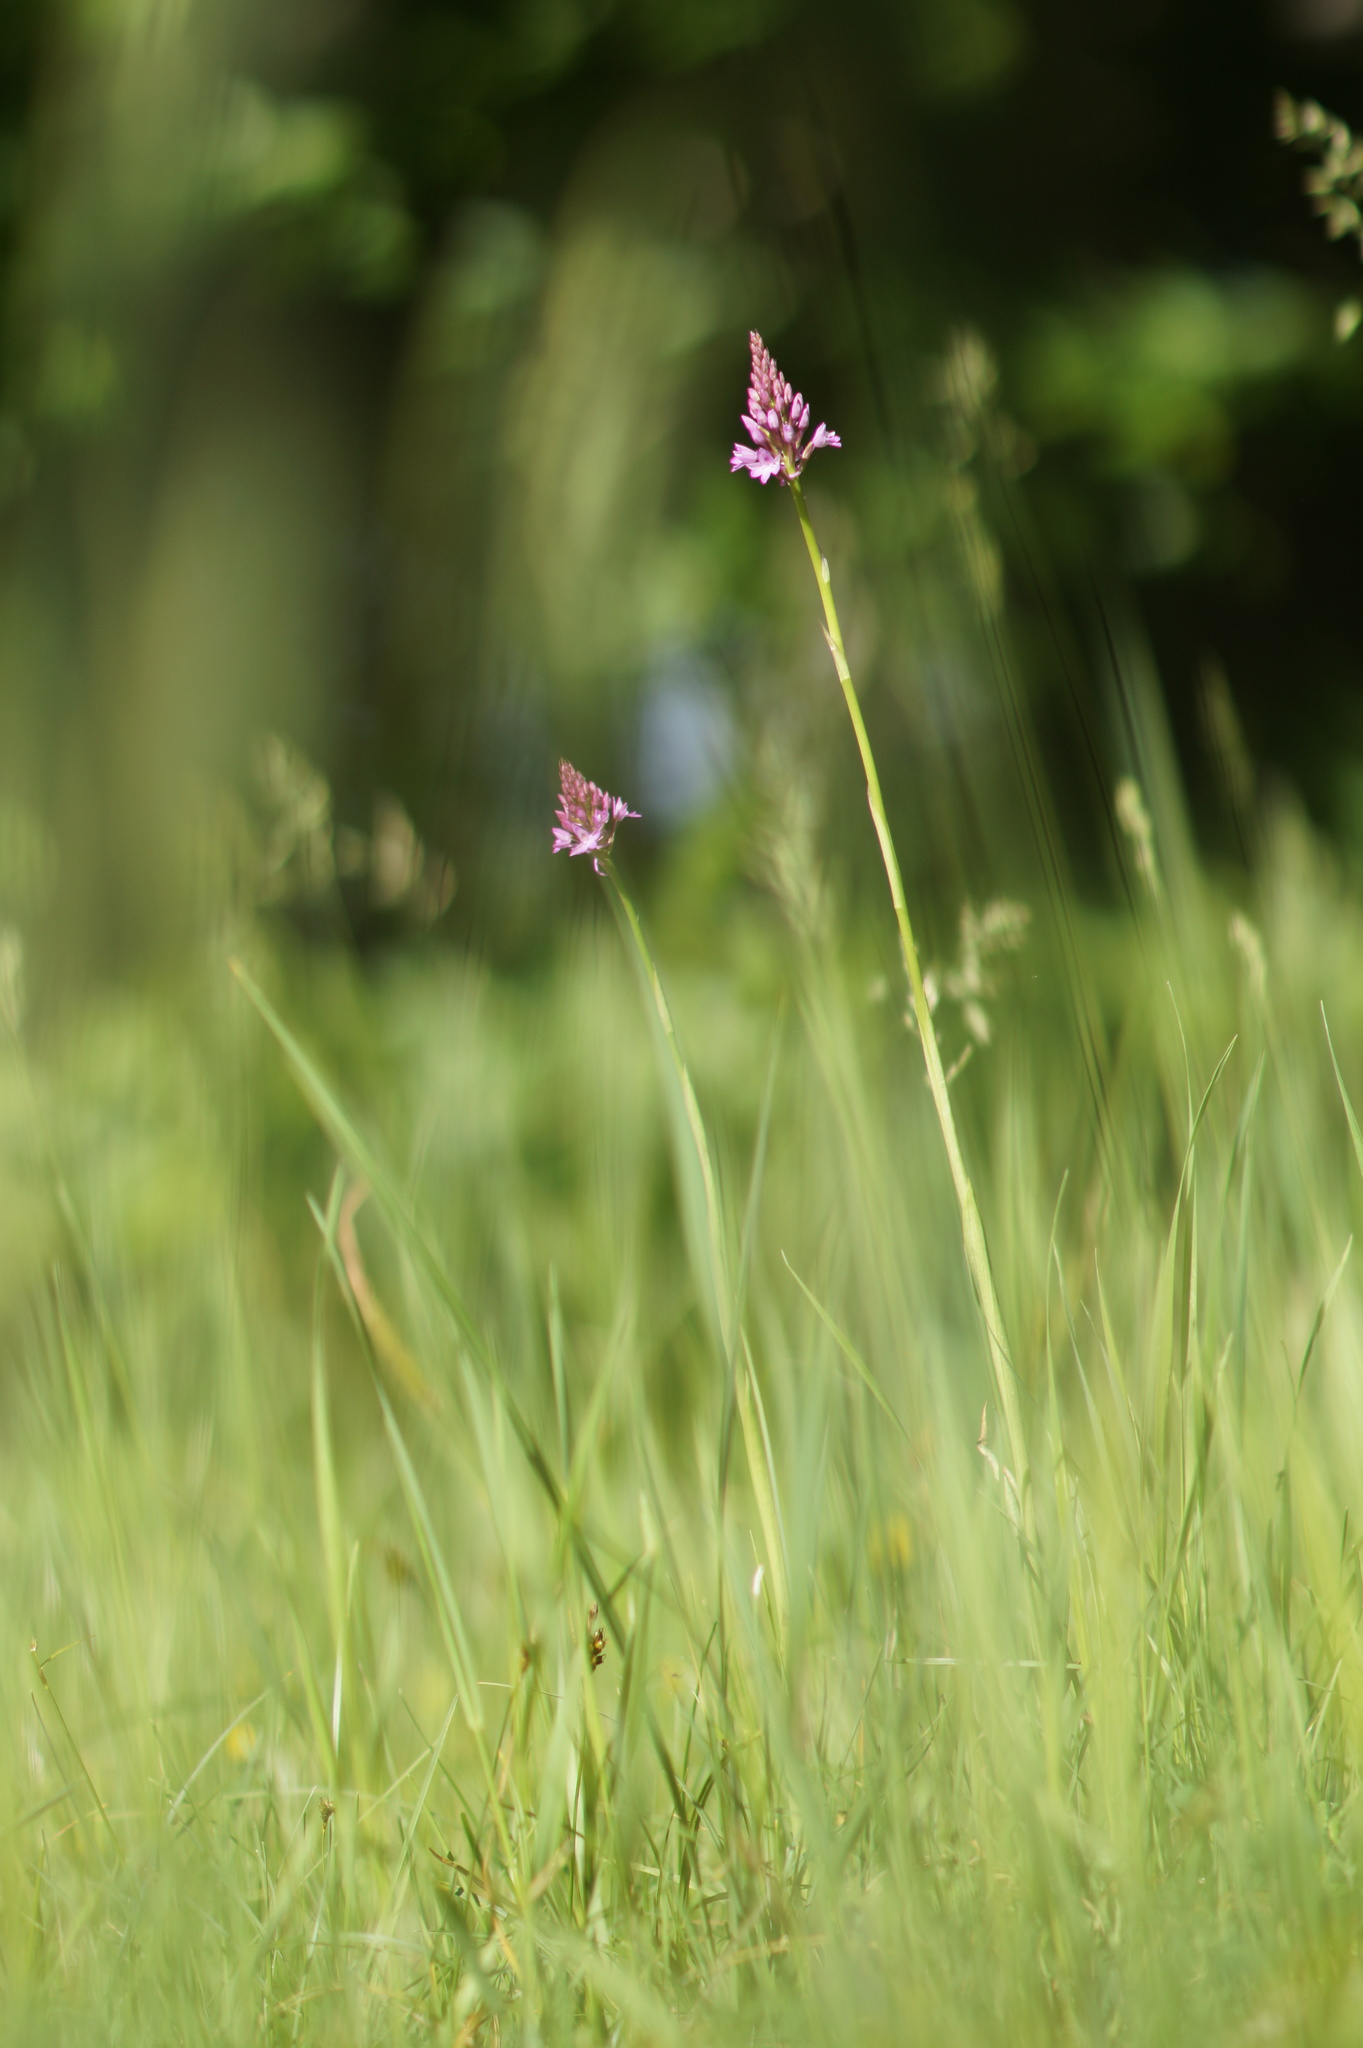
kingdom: Plantae
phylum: Tracheophyta
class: Liliopsida
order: Asparagales
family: Orchidaceae
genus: Anacamptis
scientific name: Anacamptis pyramidalis
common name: Pyramidal orchid
